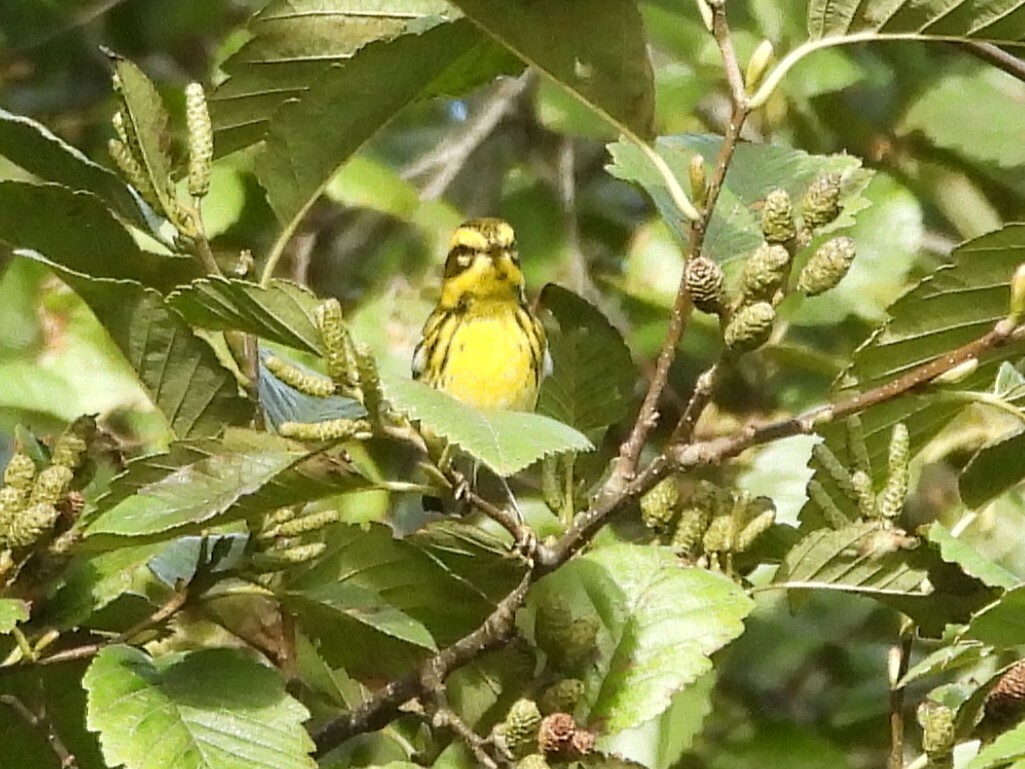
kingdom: Animalia
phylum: Chordata
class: Aves
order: Passeriformes
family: Parulidae
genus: Setophaga
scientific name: Setophaga townsendi
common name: Townsend's warbler
